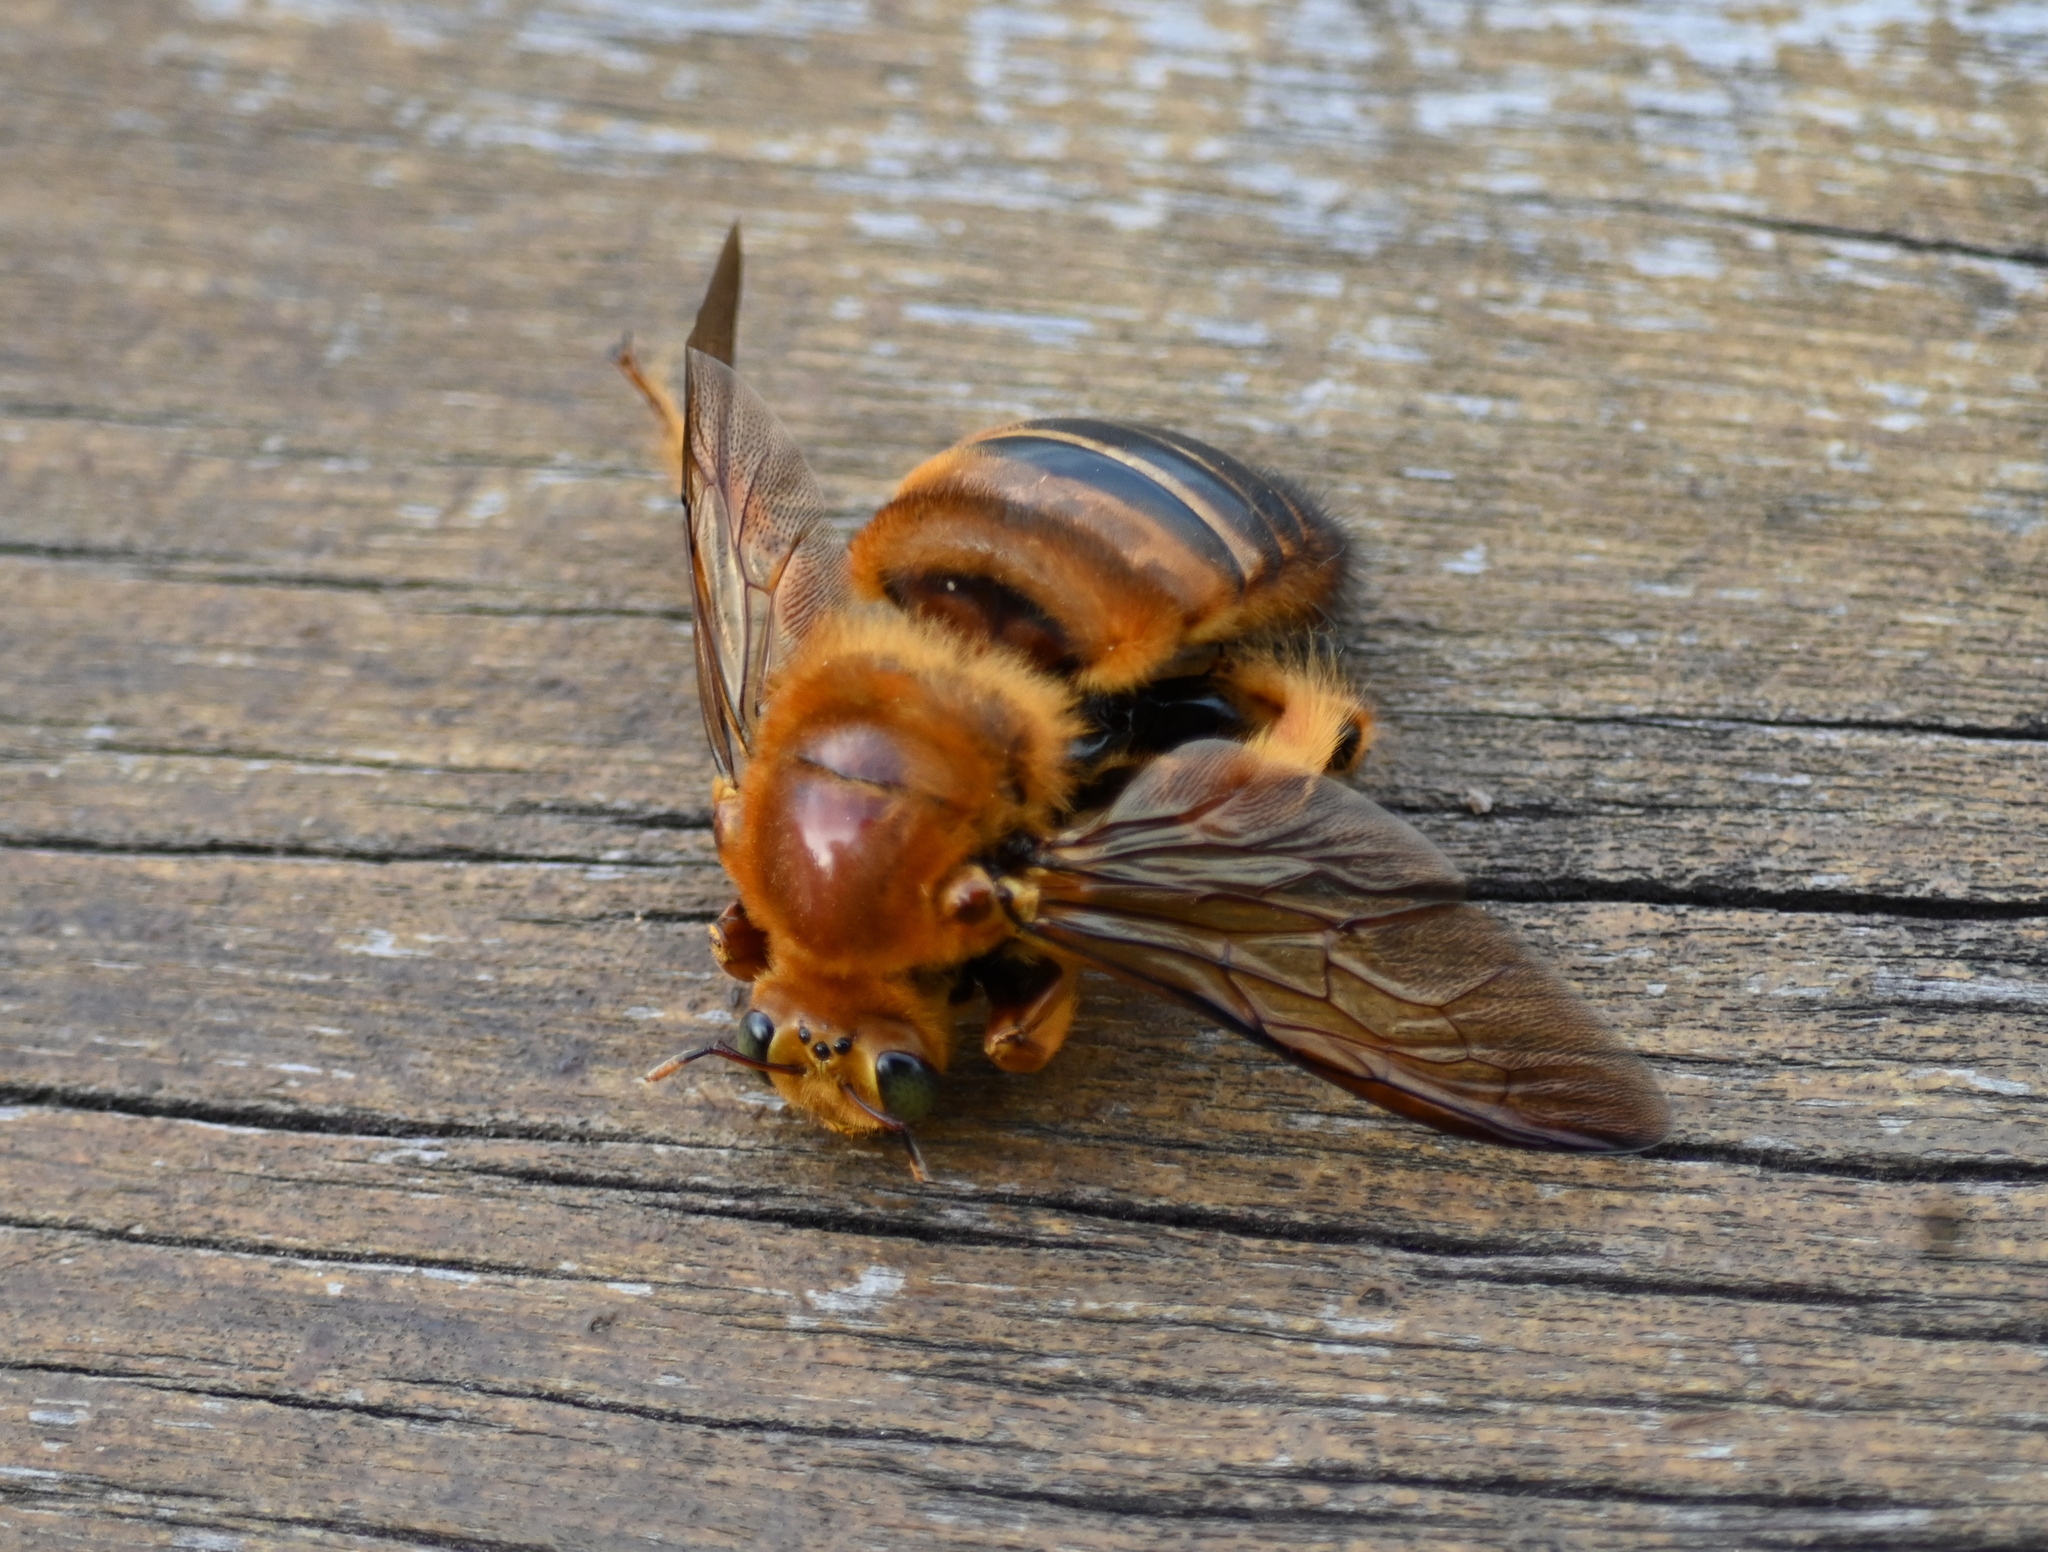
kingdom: Animalia
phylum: Arthropoda
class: Insecta
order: Hymenoptera
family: Apidae
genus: Xylocopa
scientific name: Xylocopa frontalis
